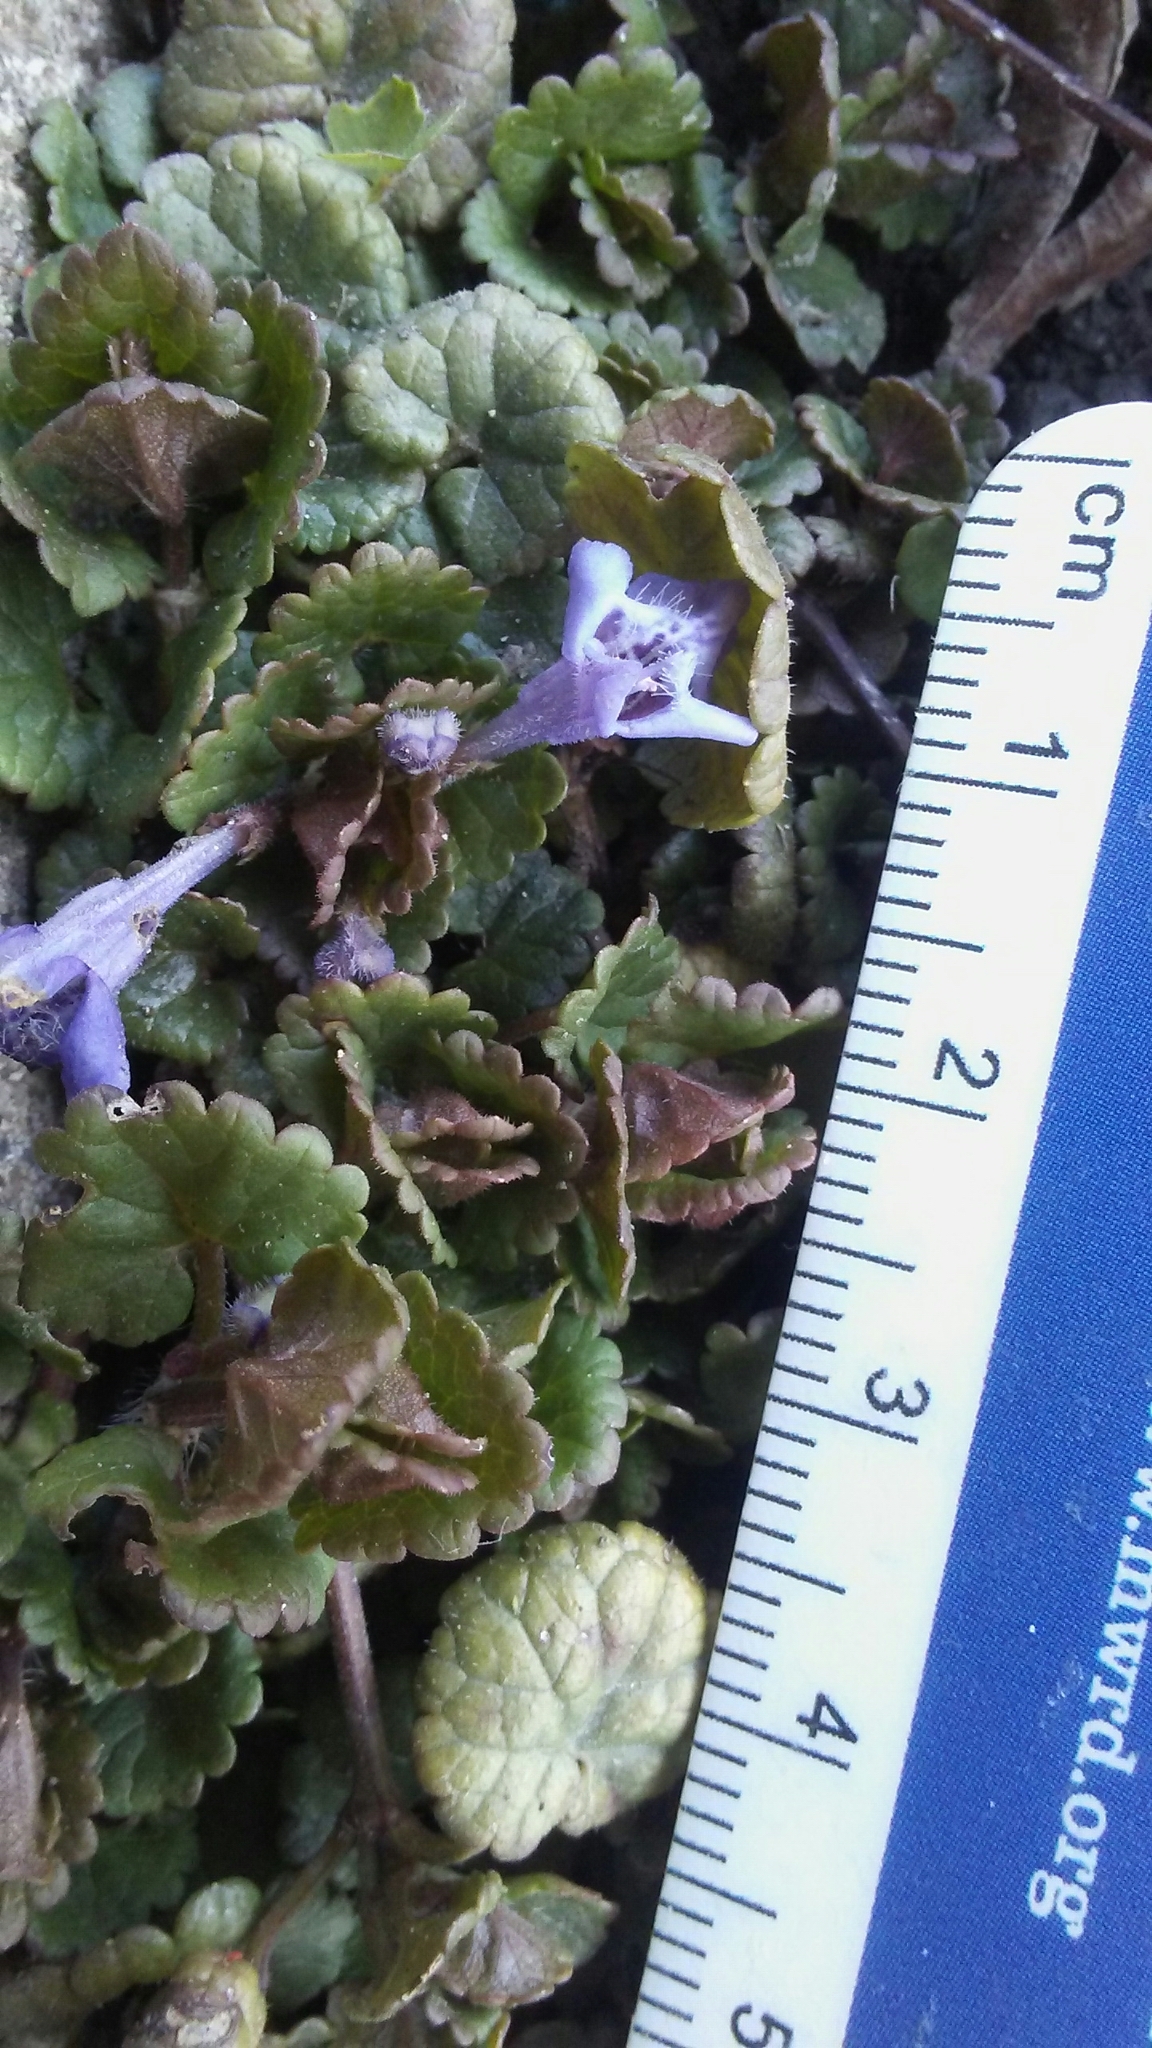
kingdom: Plantae
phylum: Tracheophyta
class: Magnoliopsida
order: Lamiales
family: Lamiaceae
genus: Glechoma
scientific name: Glechoma hederacea
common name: Ground ivy
